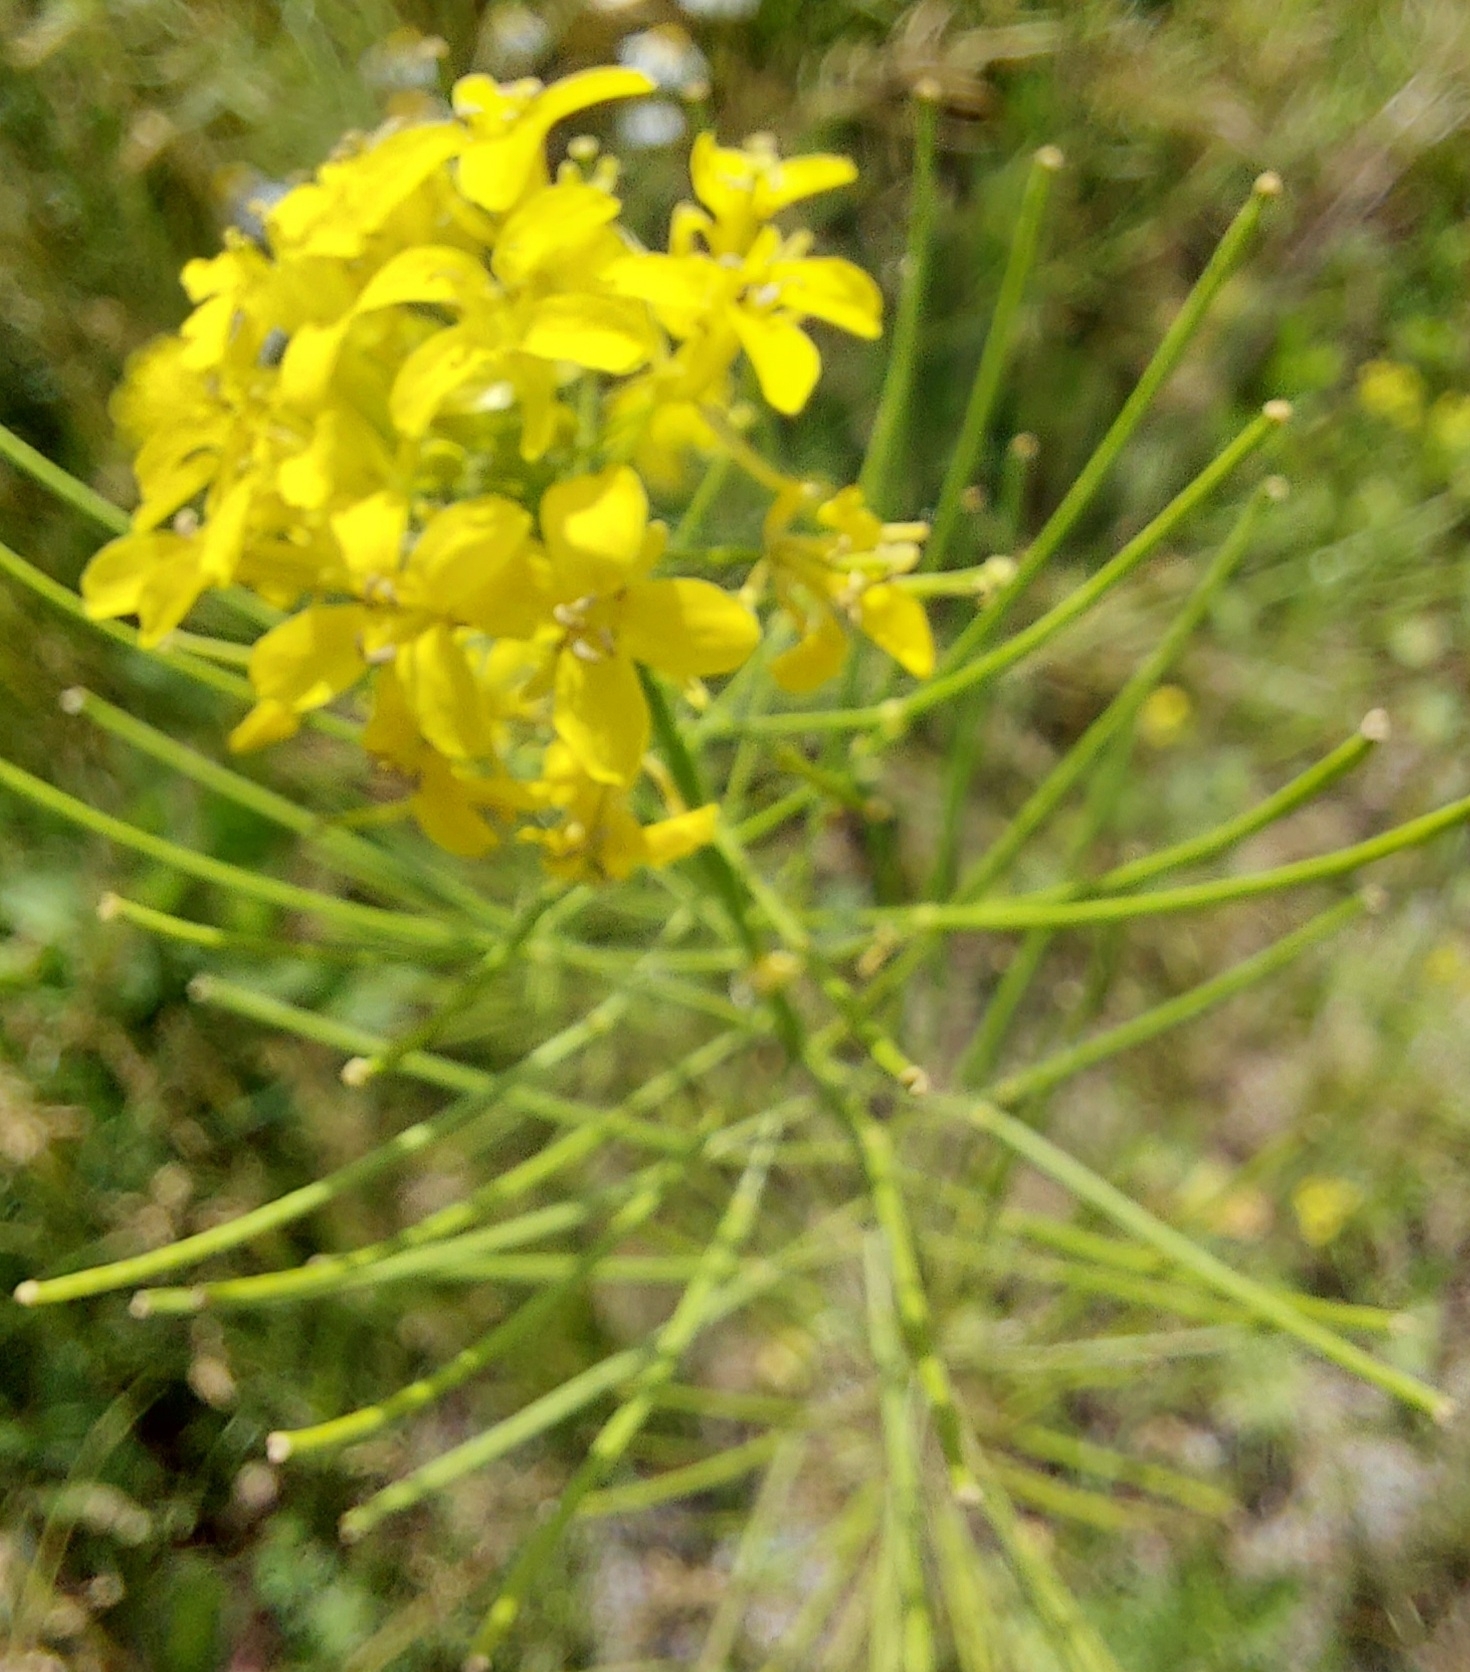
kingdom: Plantae
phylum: Tracheophyta
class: Magnoliopsida
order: Brassicales
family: Brassicaceae
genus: Sisymbrium
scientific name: Sisymbrium loeselii
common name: False london-rocket
